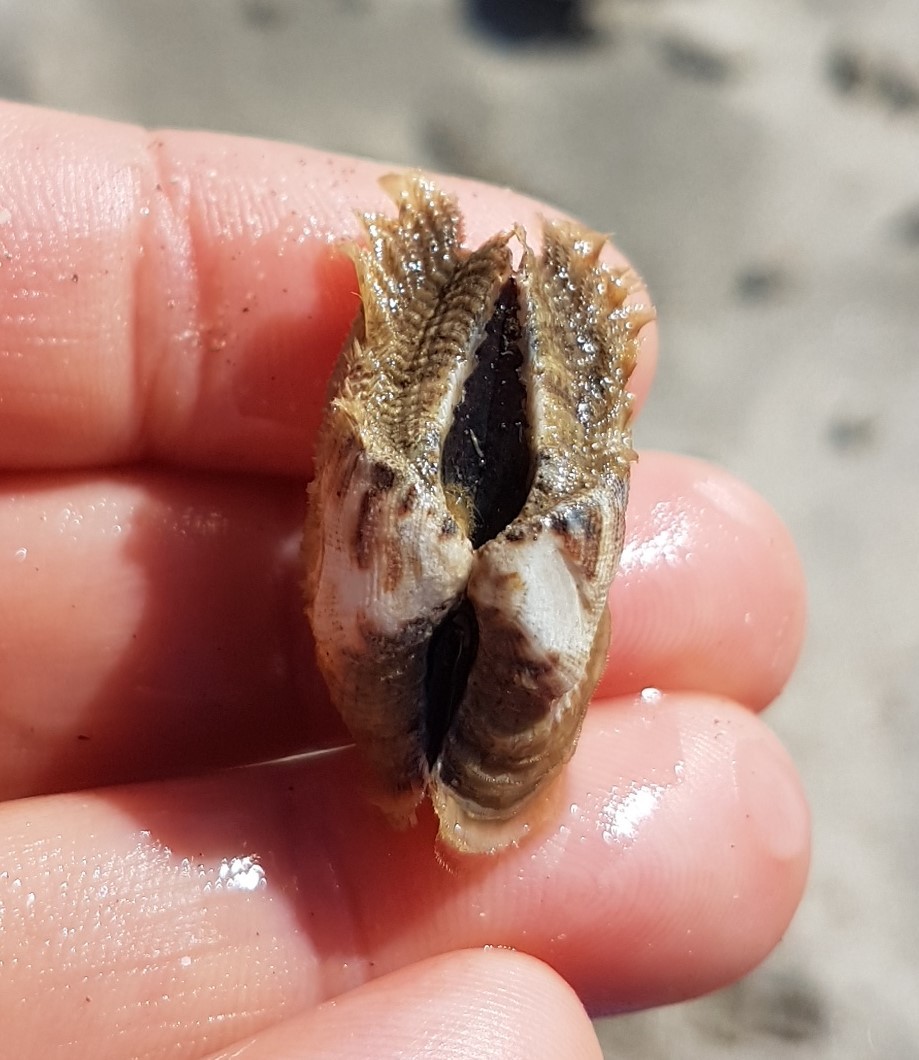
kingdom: Animalia
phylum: Mollusca
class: Bivalvia
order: Arcida
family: Arcidae
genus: Lamarcka
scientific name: Lamarcka mutabilis
